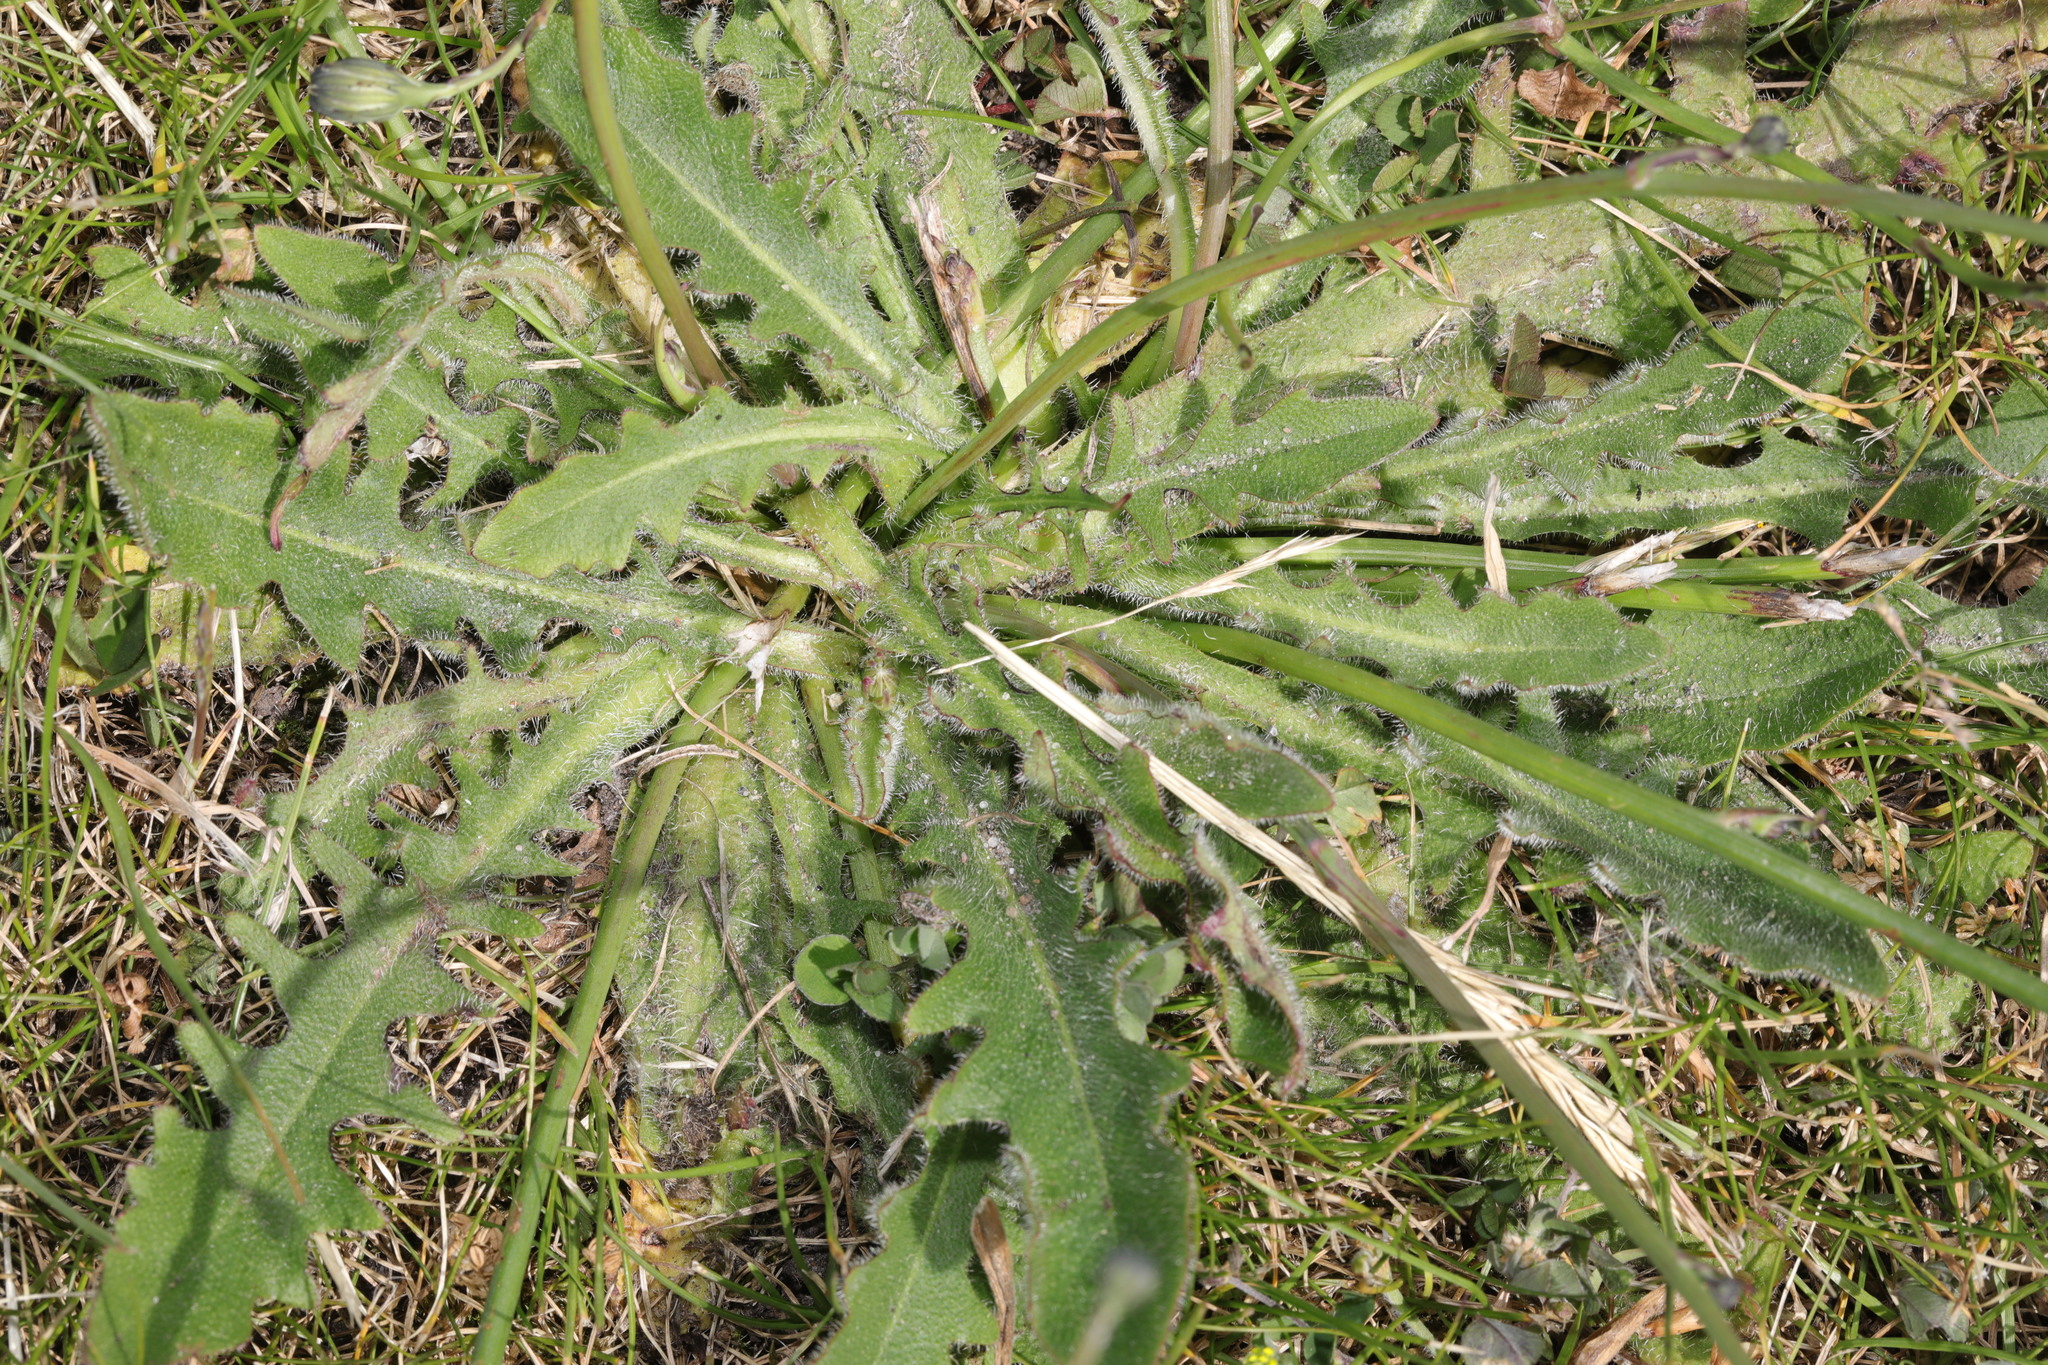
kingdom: Plantae
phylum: Tracheophyta
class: Magnoliopsida
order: Asterales
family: Asteraceae
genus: Hypochaeris
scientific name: Hypochaeris radicata
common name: Flatweed
